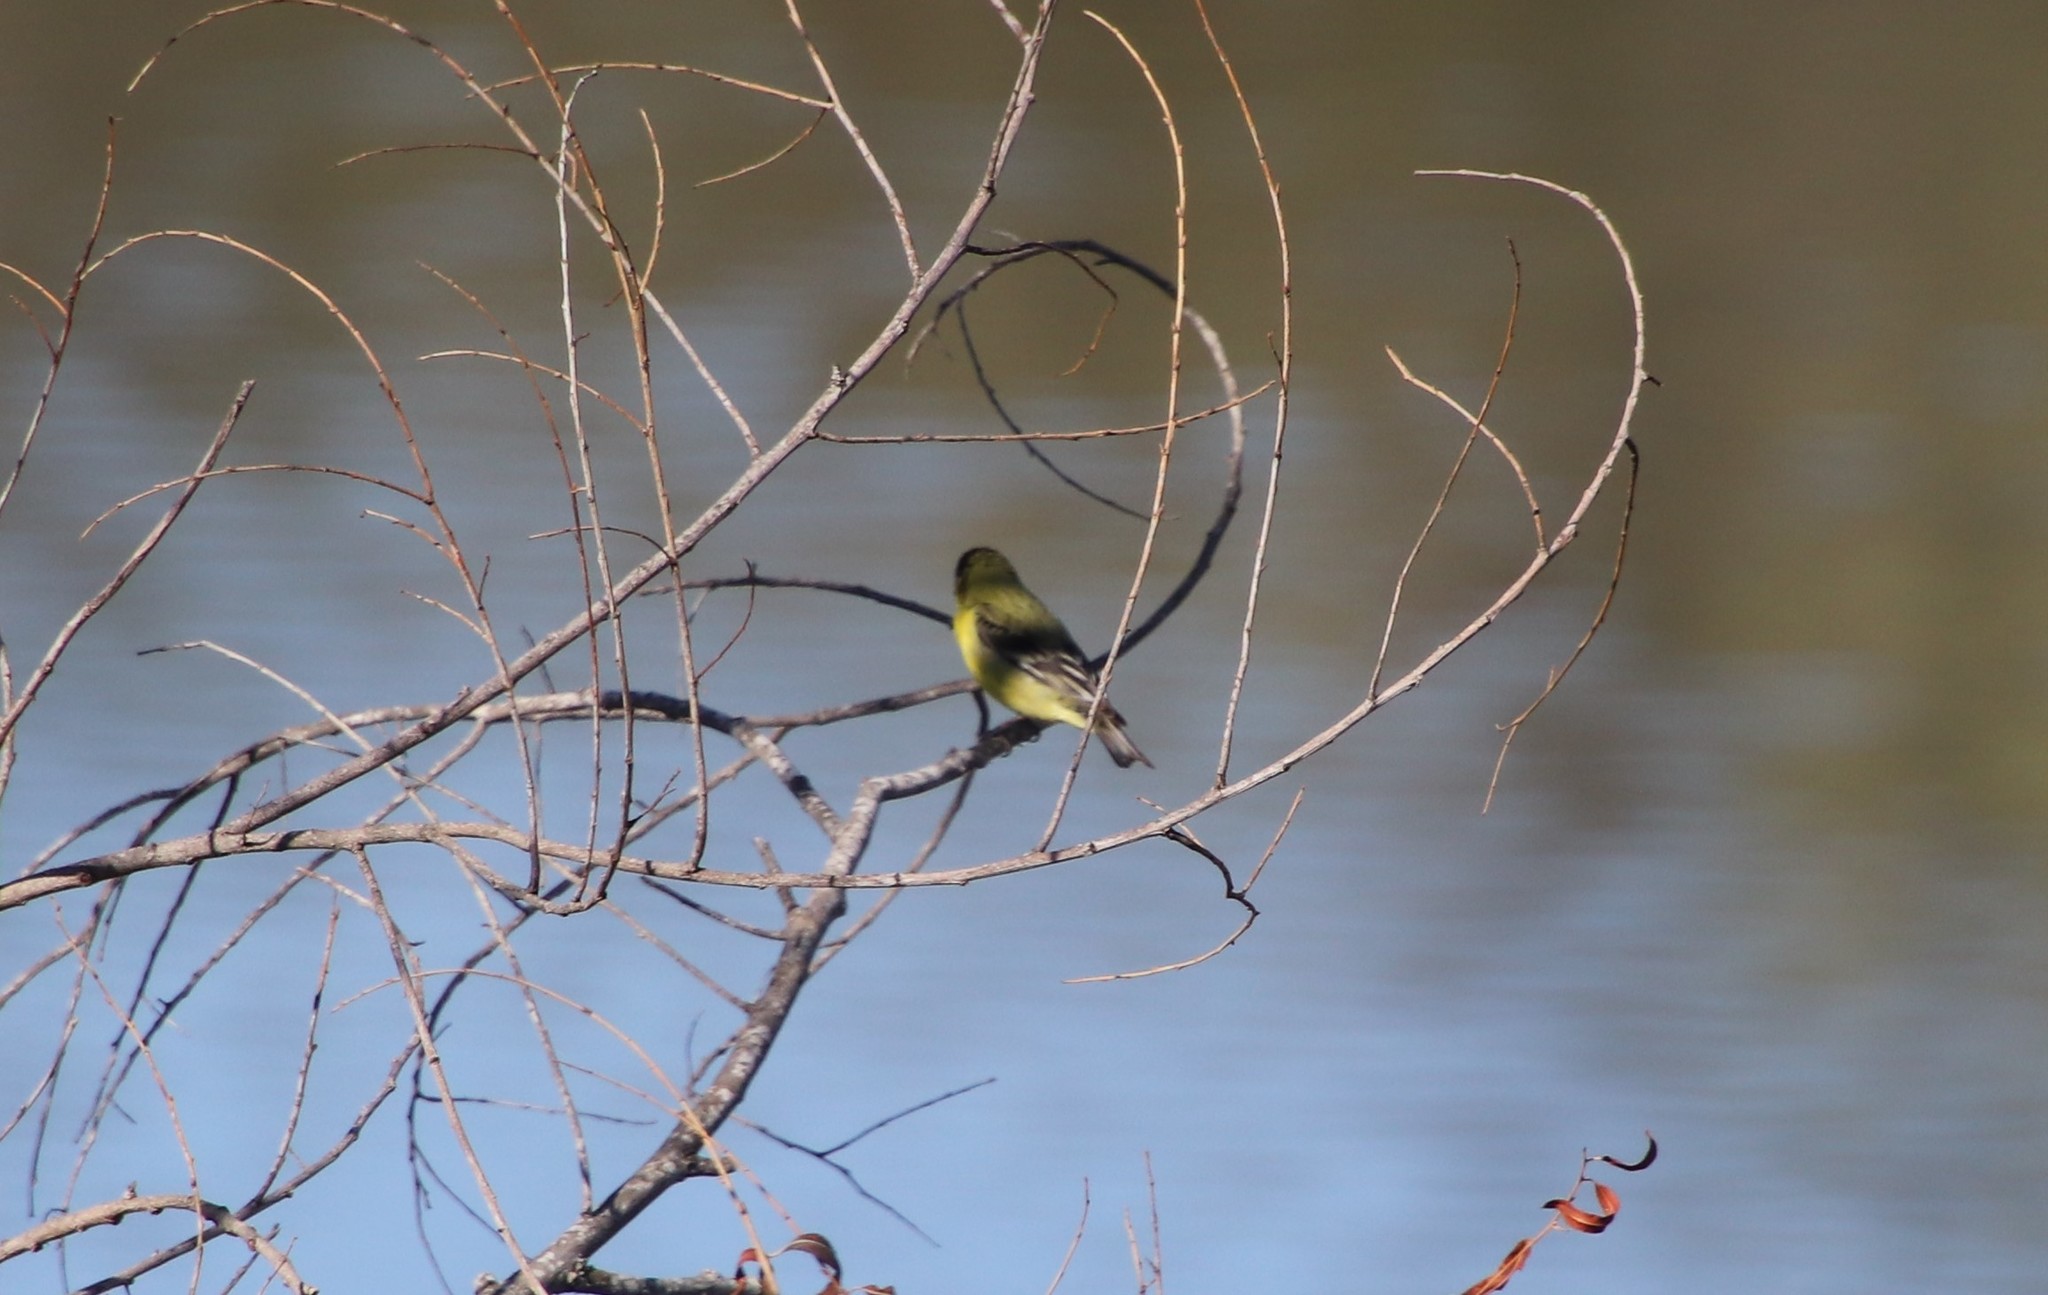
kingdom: Animalia
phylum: Chordata
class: Aves
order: Passeriformes
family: Fringillidae
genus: Spinus
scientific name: Spinus psaltria
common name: Lesser goldfinch
